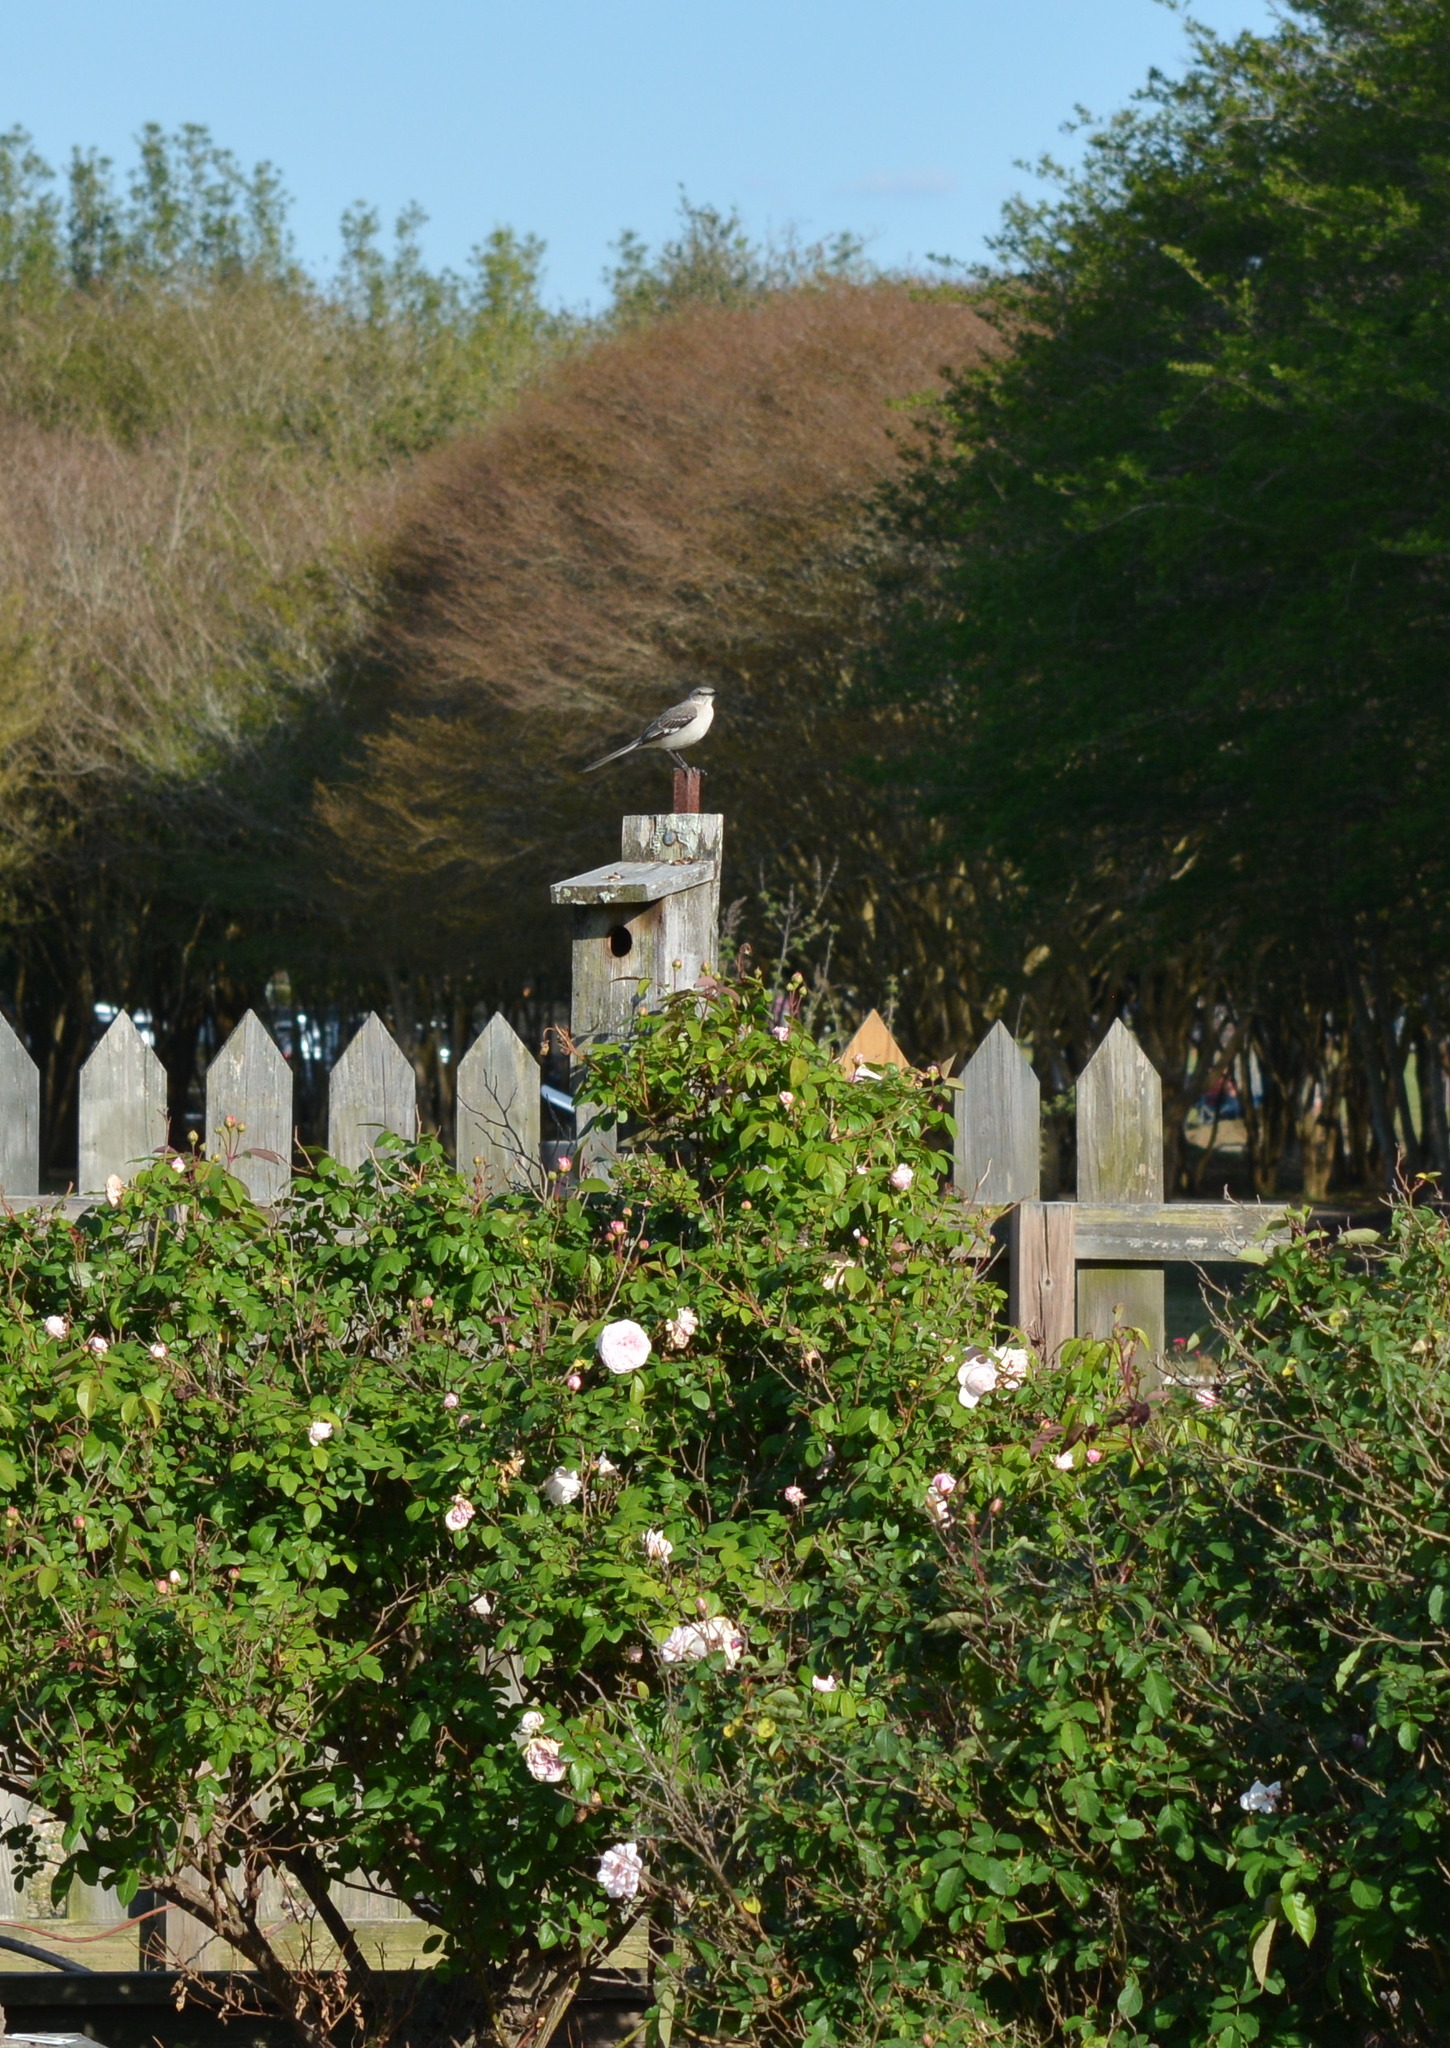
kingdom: Animalia
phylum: Chordata
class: Aves
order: Passeriformes
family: Mimidae
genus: Mimus
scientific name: Mimus polyglottos
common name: Northern mockingbird
